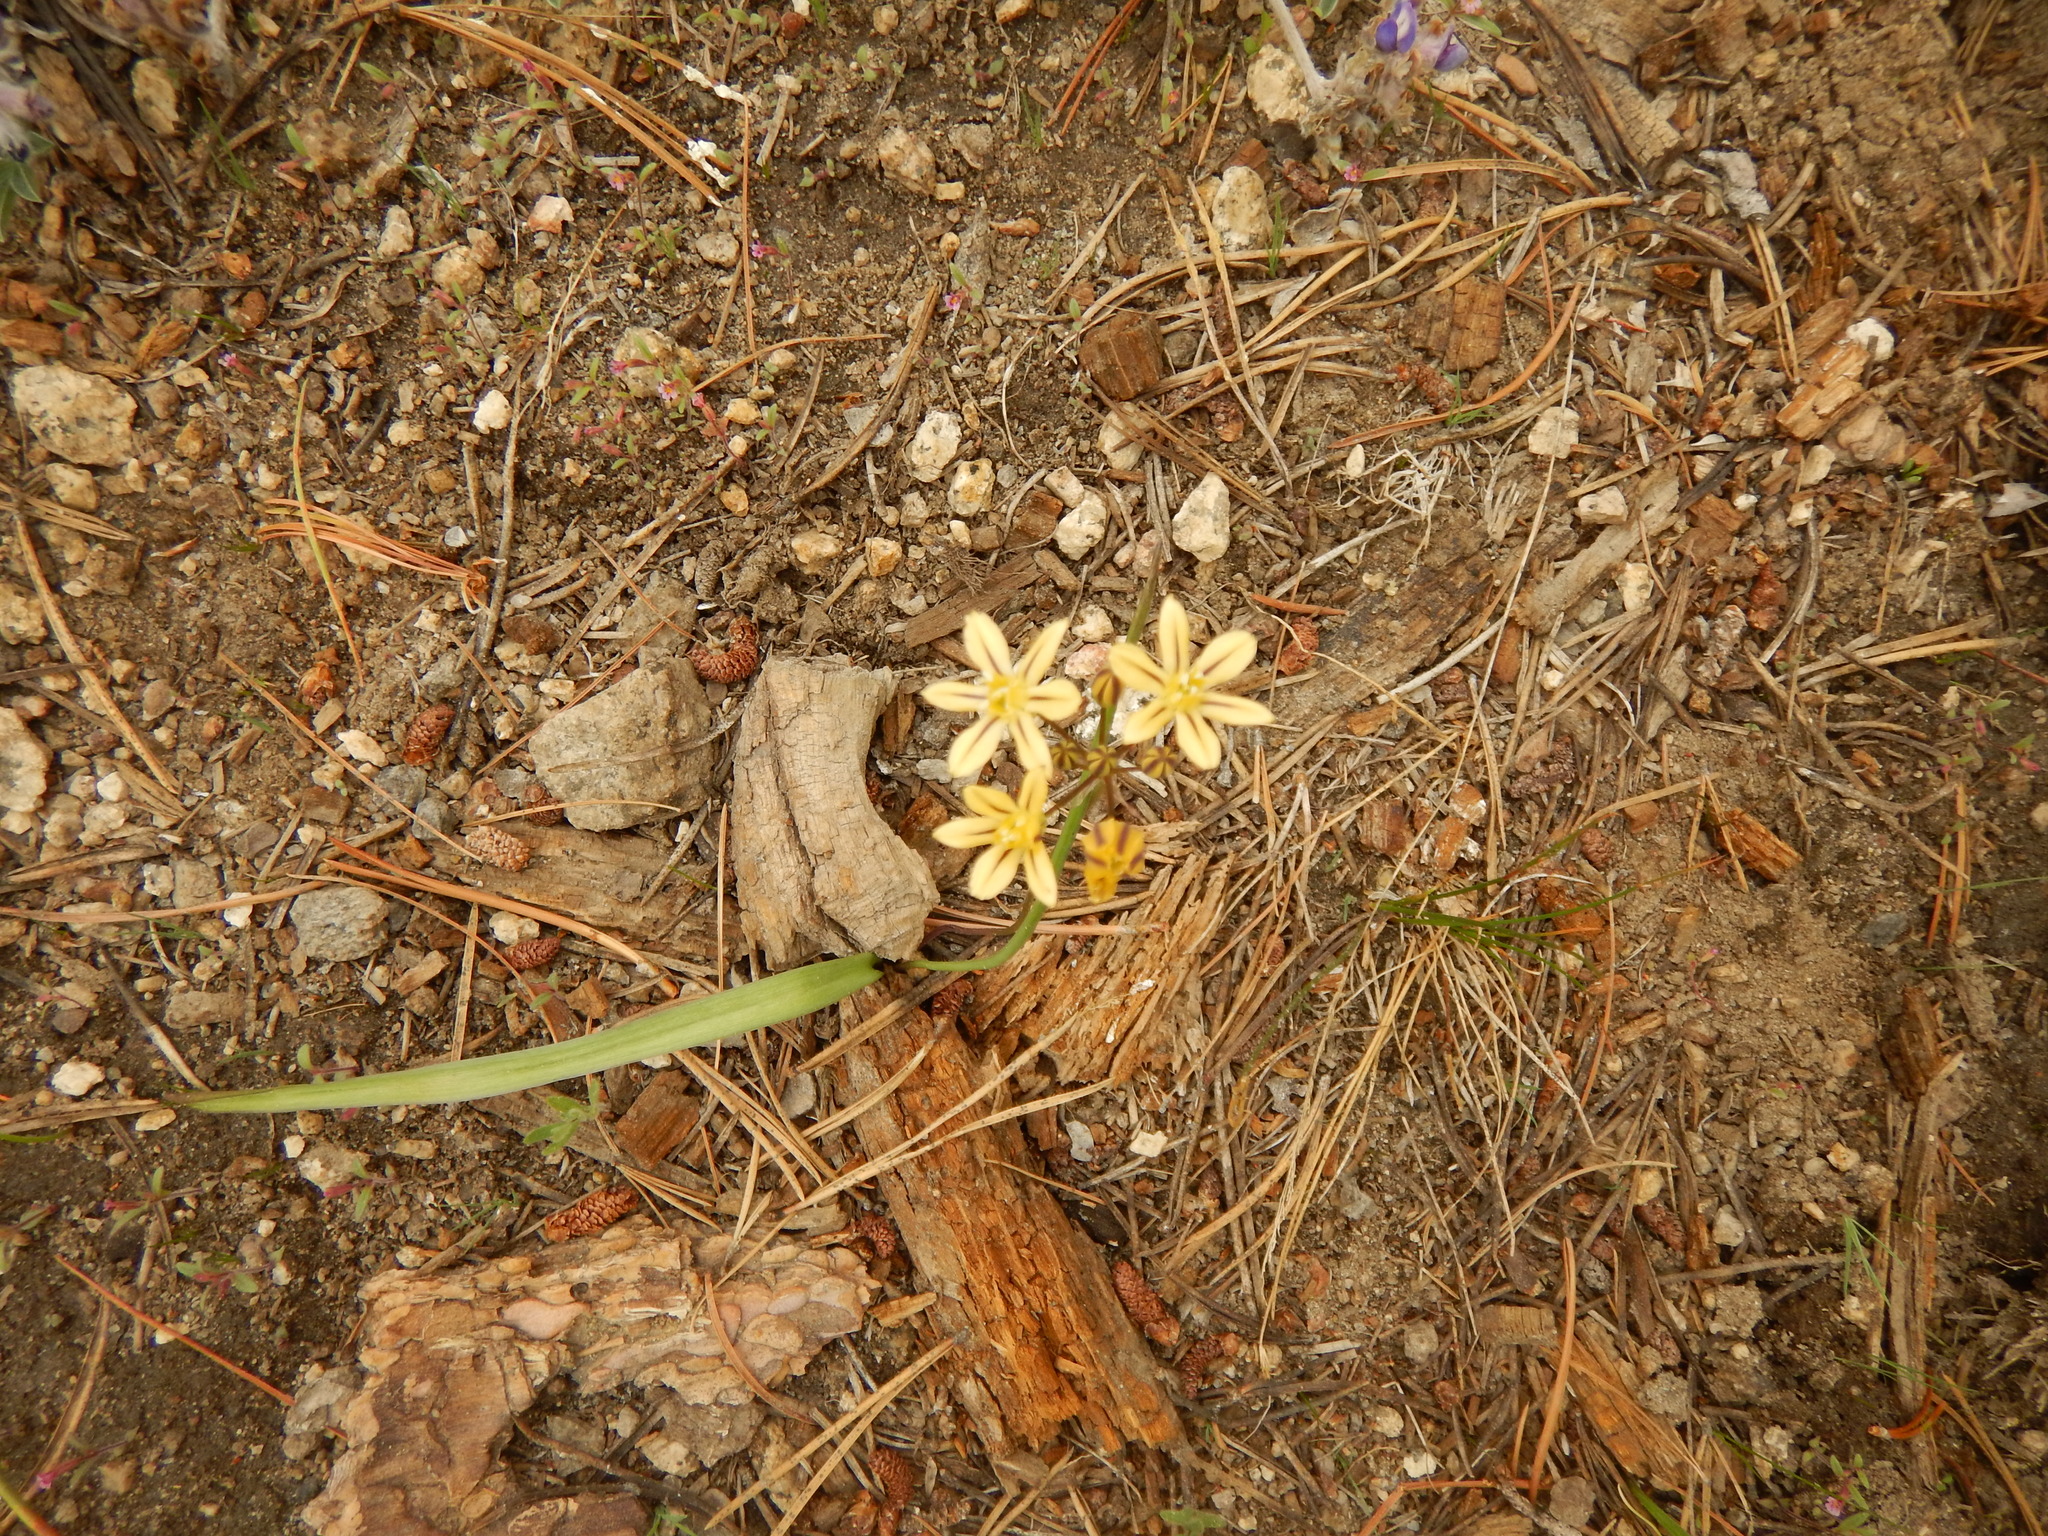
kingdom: Plantae
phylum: Tracheophyta
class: Liliopsida
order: Asparagales
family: Asparagaceae
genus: Triteleia
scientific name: Triteleia ixioides
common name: Yellow-brodiaea
